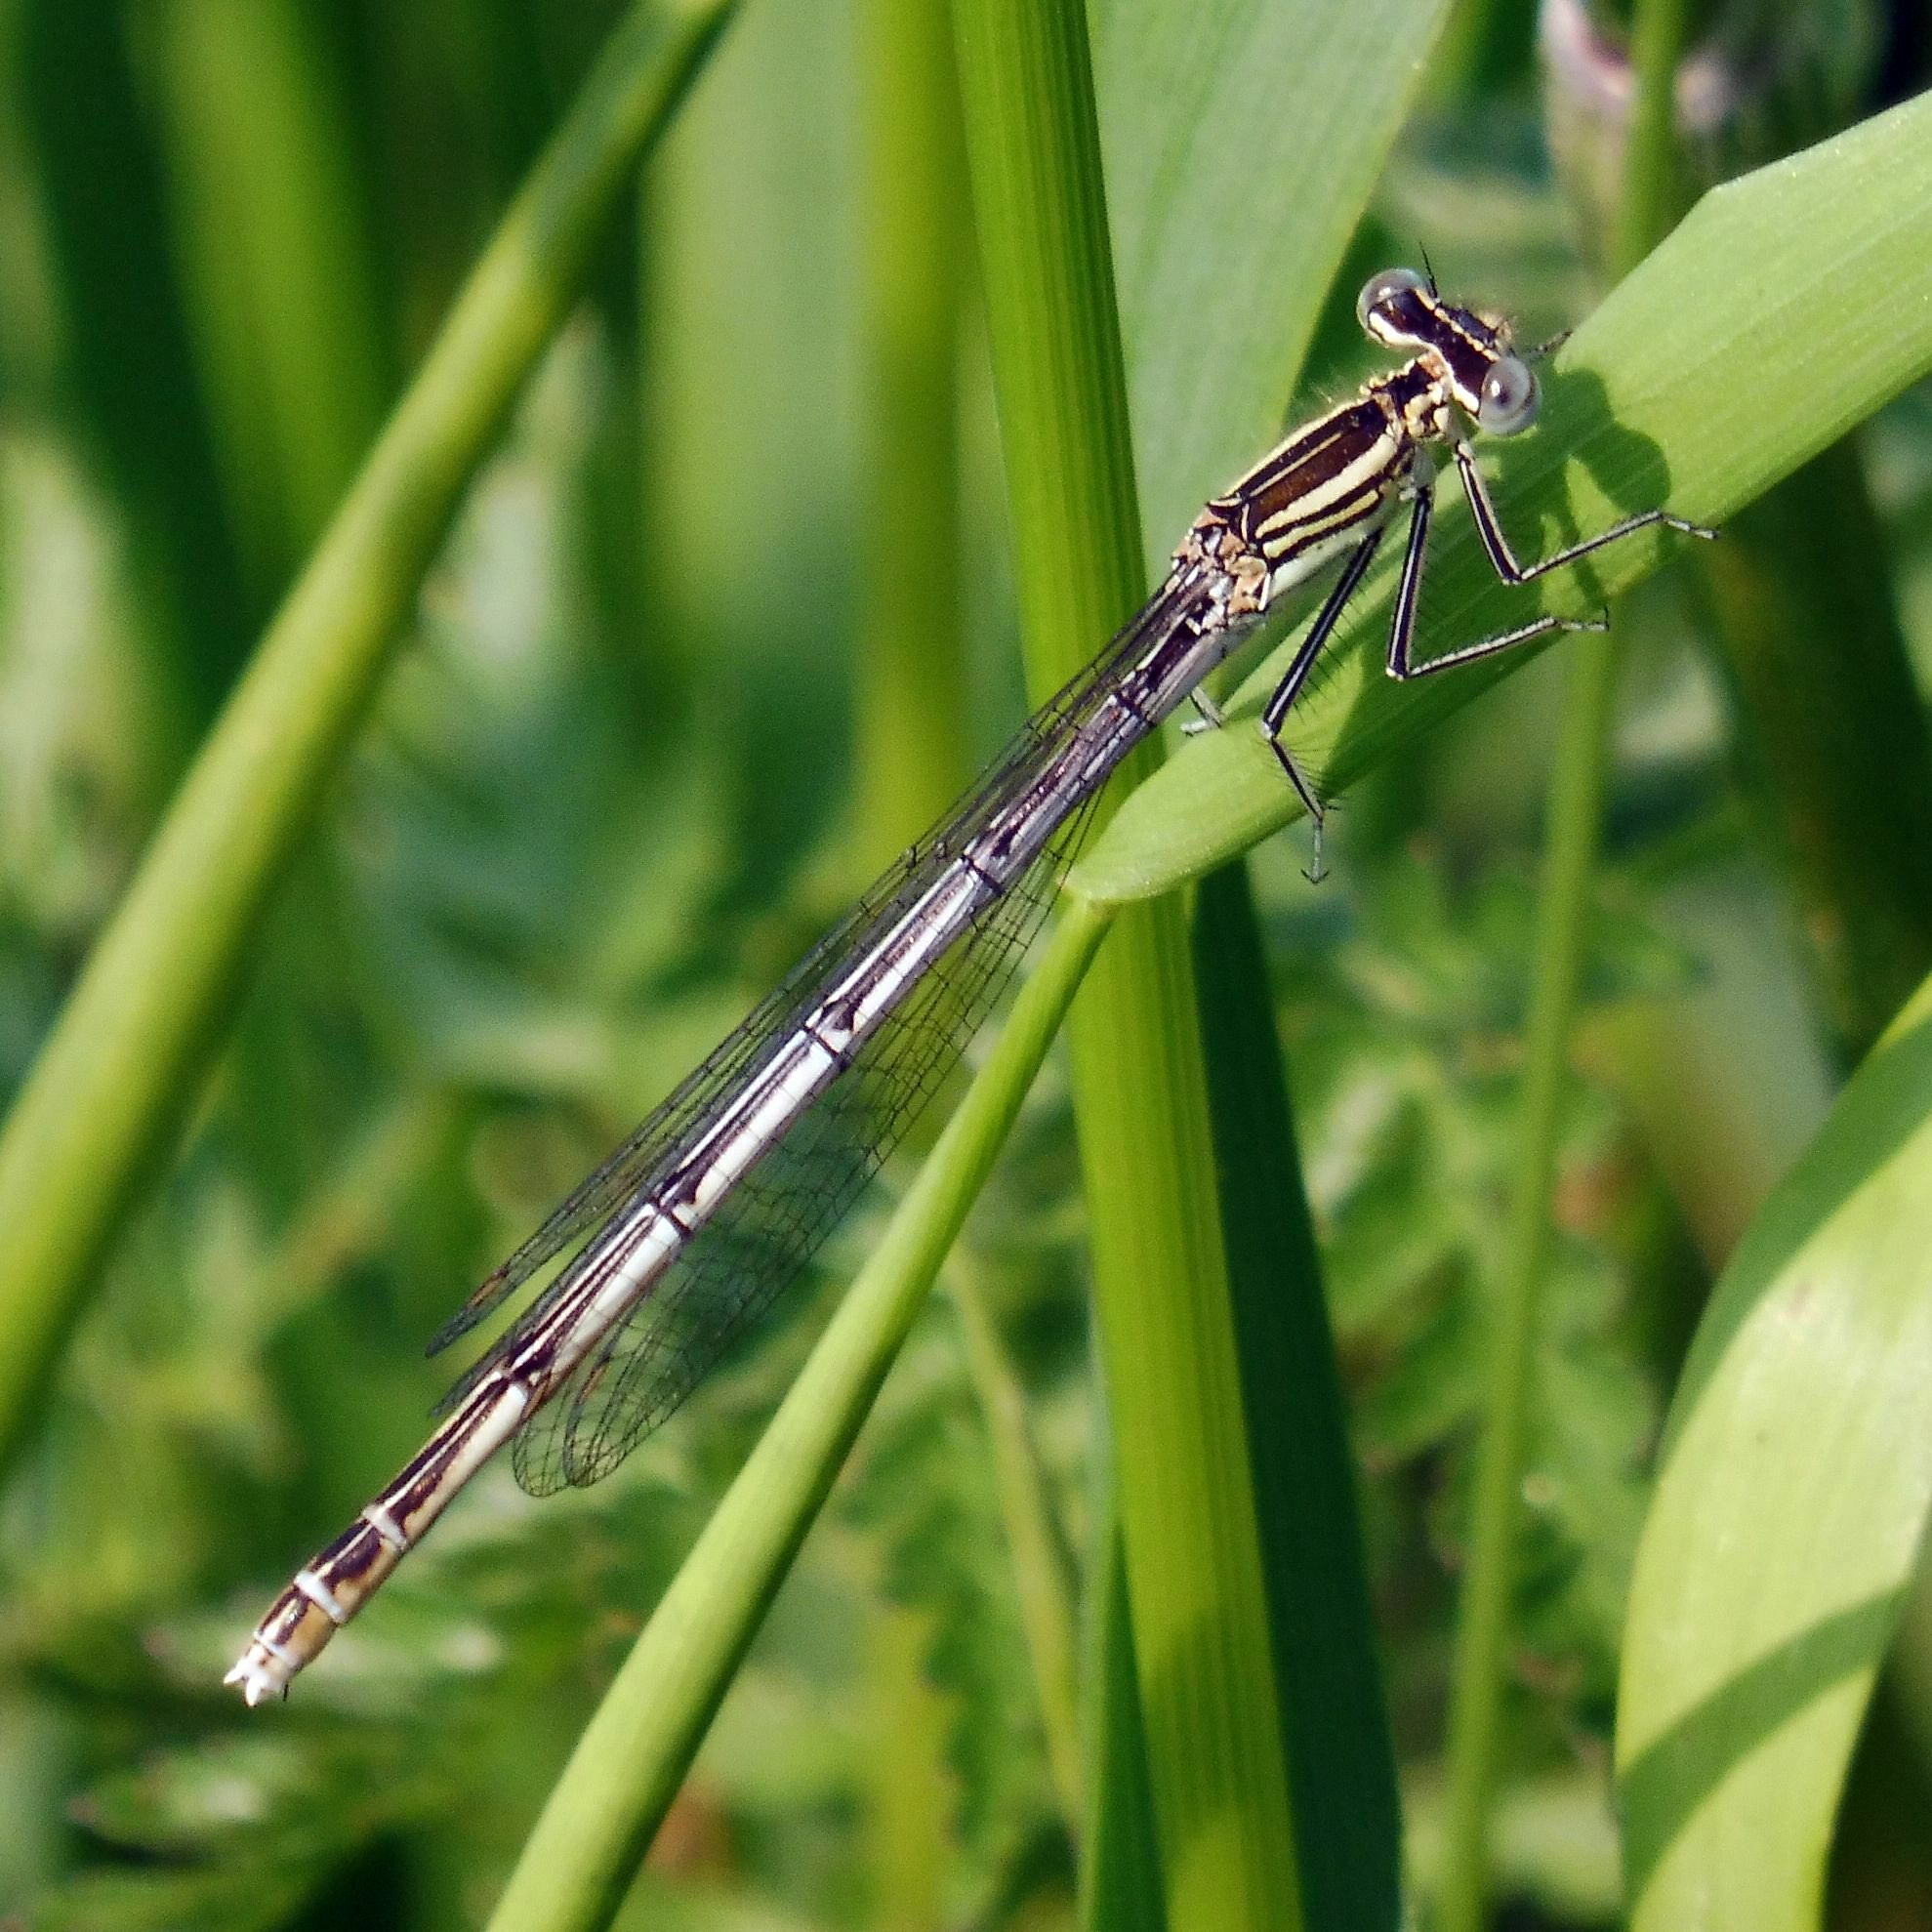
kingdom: Animalia
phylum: Arthropoda
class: Insecta
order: Odonata
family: Platycnemididae
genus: Platycnemis
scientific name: Platycnemis pennipes
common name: White-legged damselfly
